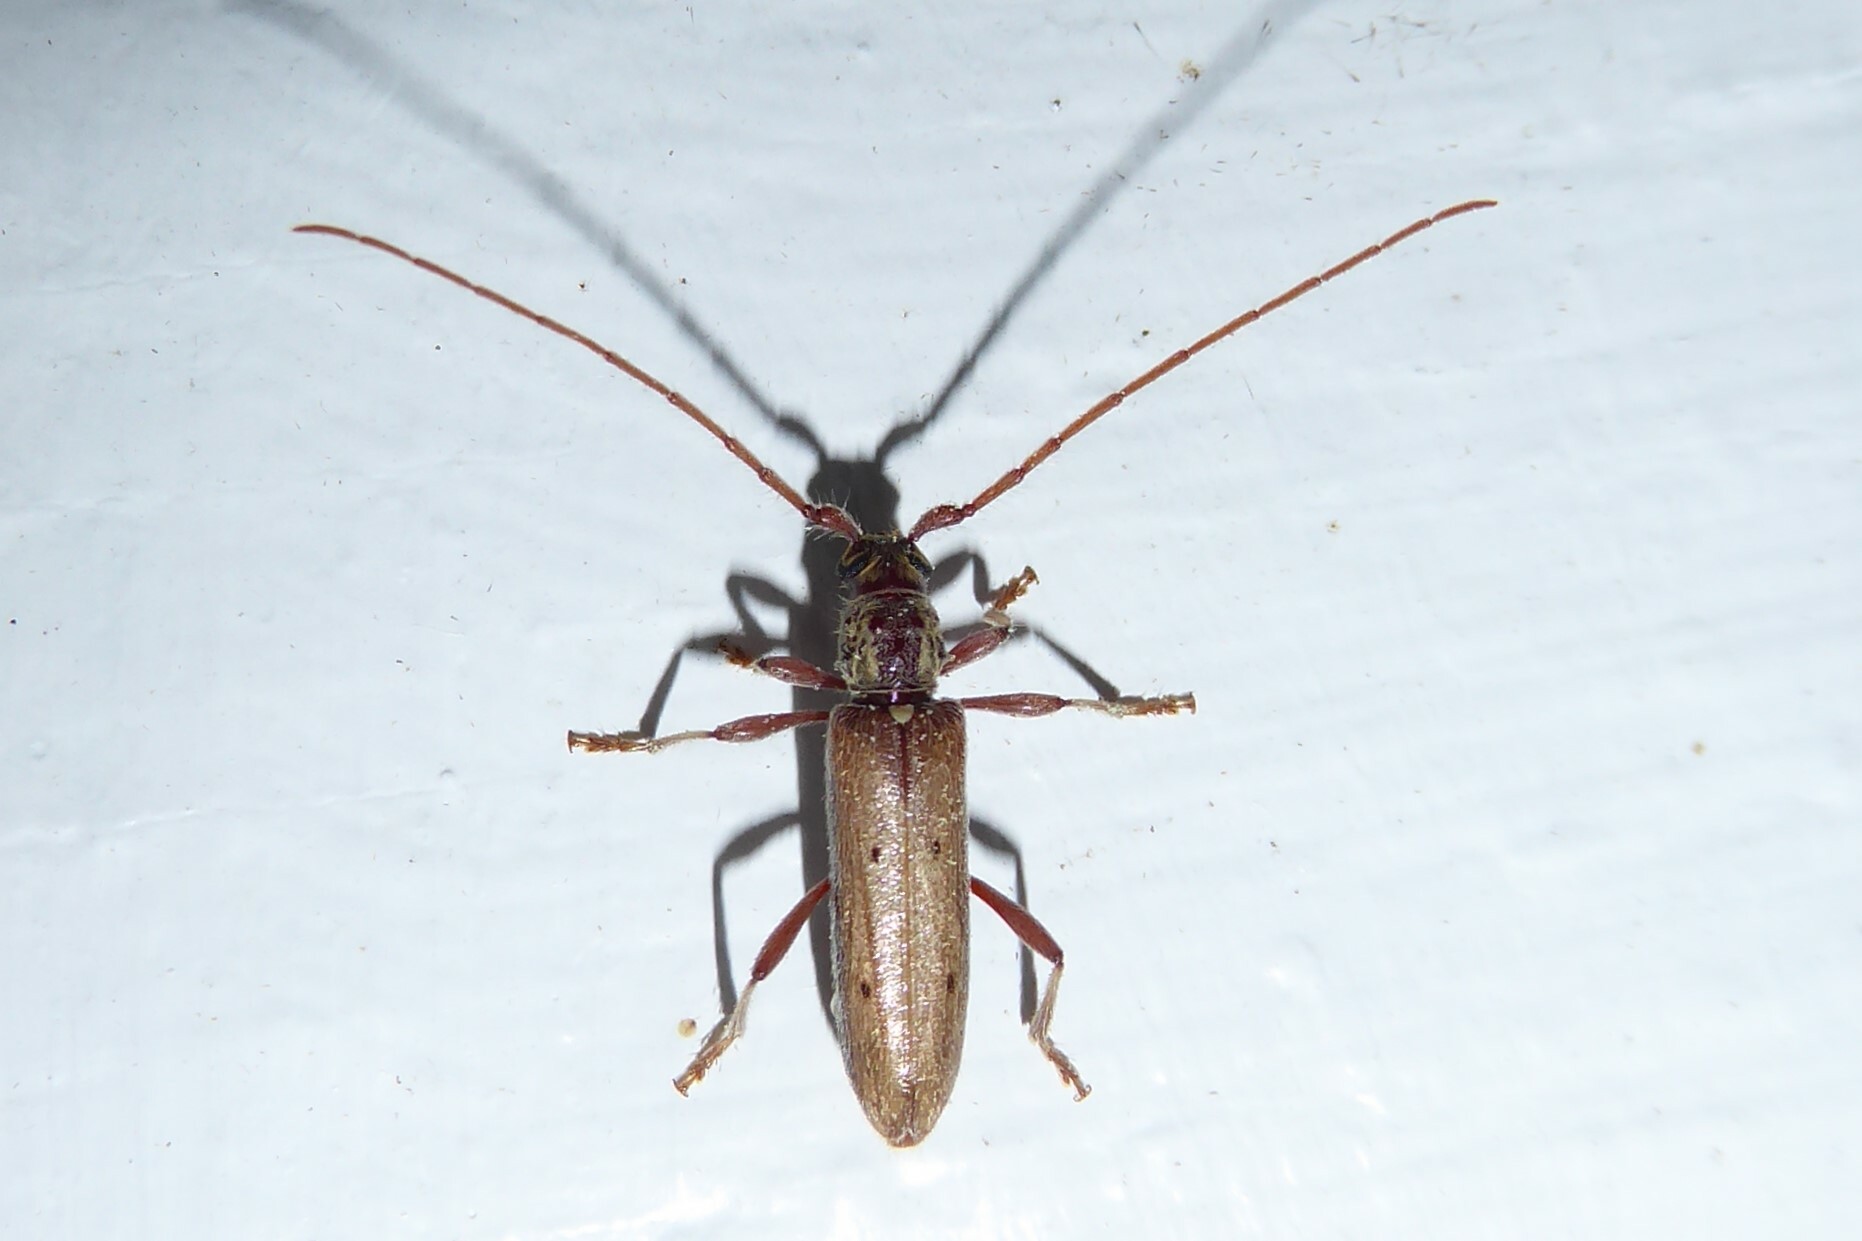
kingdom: Animalia
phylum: Arthropoda
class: Insecta
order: Coleoptera
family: Cerambycidae
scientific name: Cerambycidae
